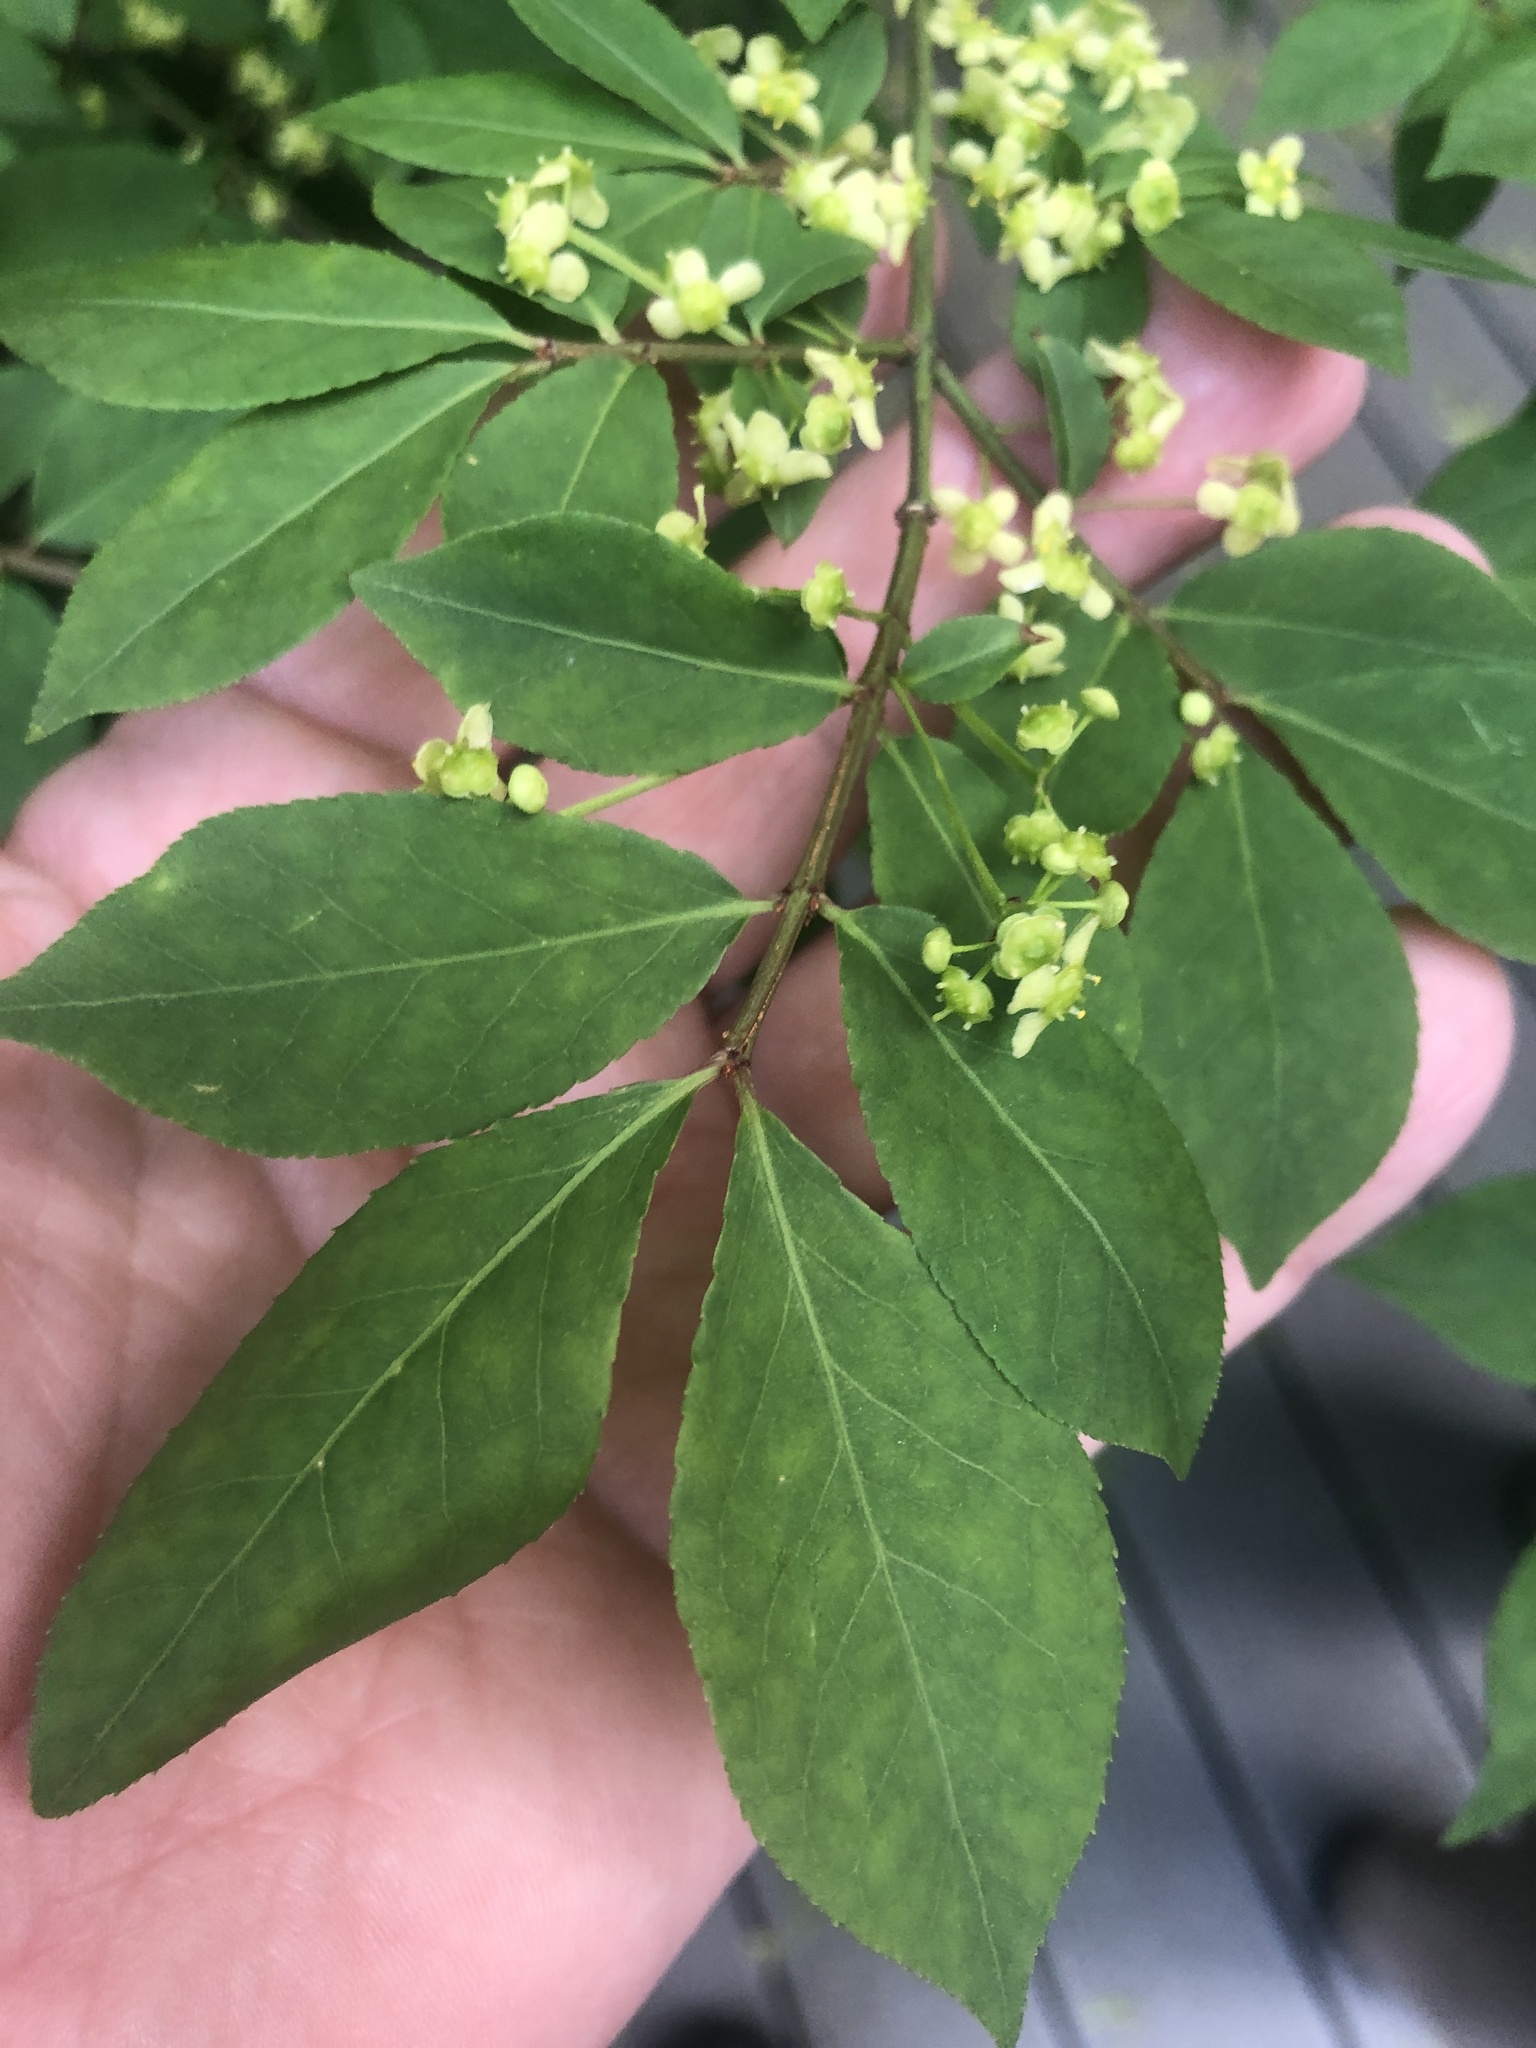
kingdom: Plantae
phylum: Tracheophyta
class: Magnoliopsida
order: Celastrales
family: Celastraceae
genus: Euonymus
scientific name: Euonymus alatus
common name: Winged euonymus
